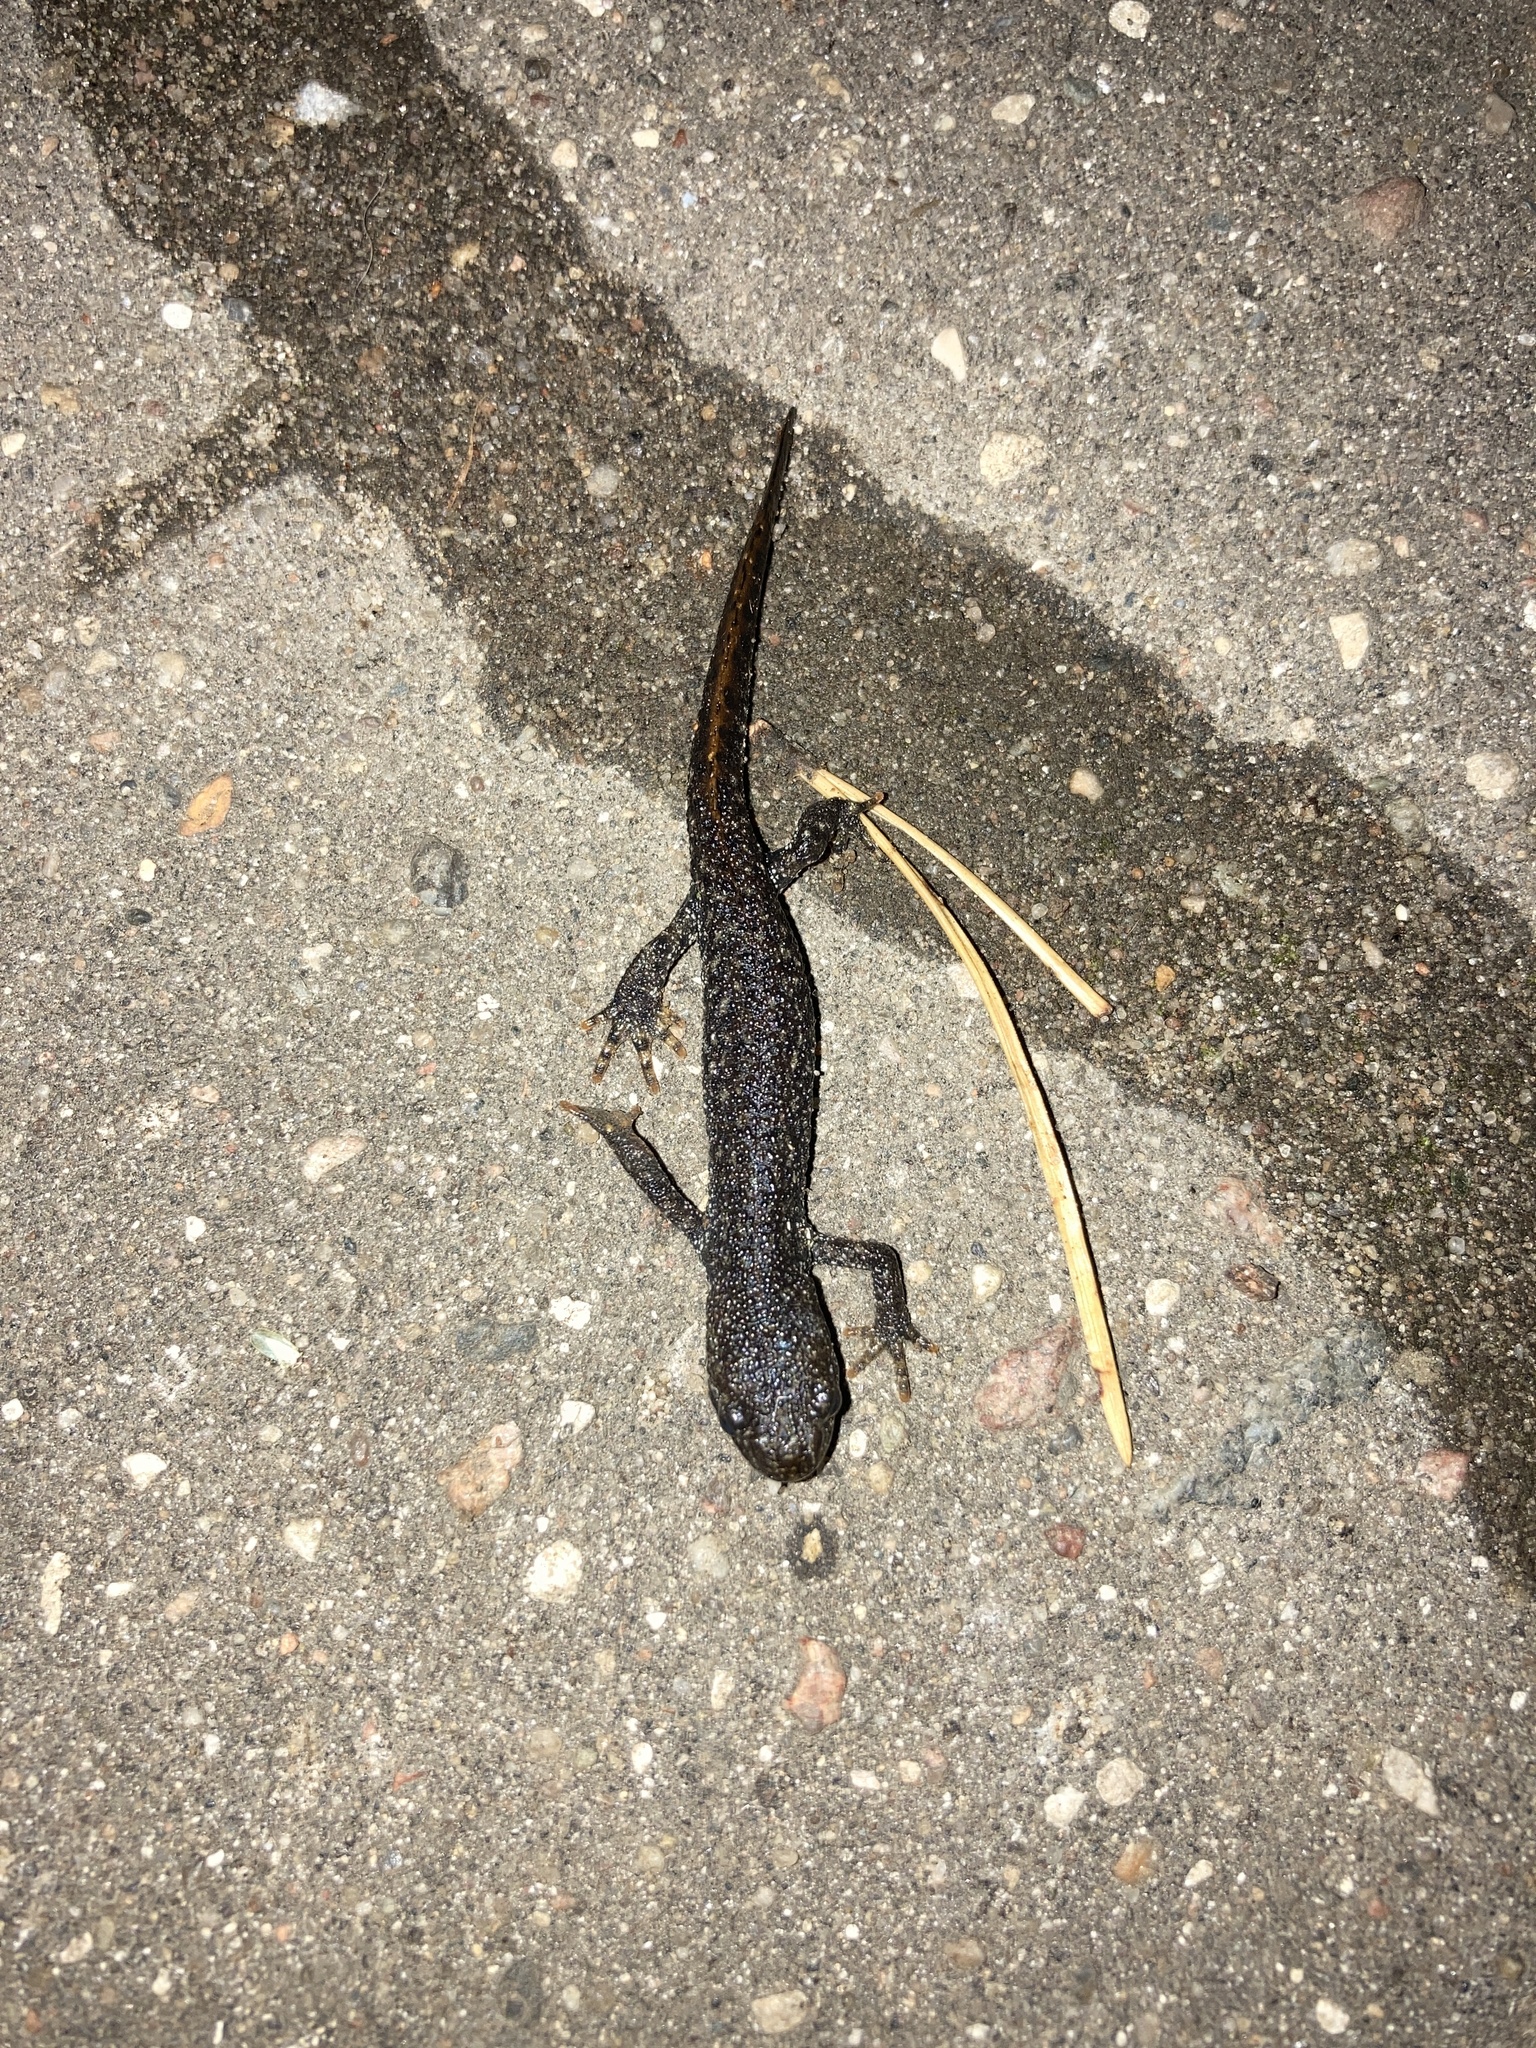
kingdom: Animalia
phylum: Chordata
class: Amphibia
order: Caudata
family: Salamandridae
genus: Triturus
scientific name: Triturus cristatus
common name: Crested newt
